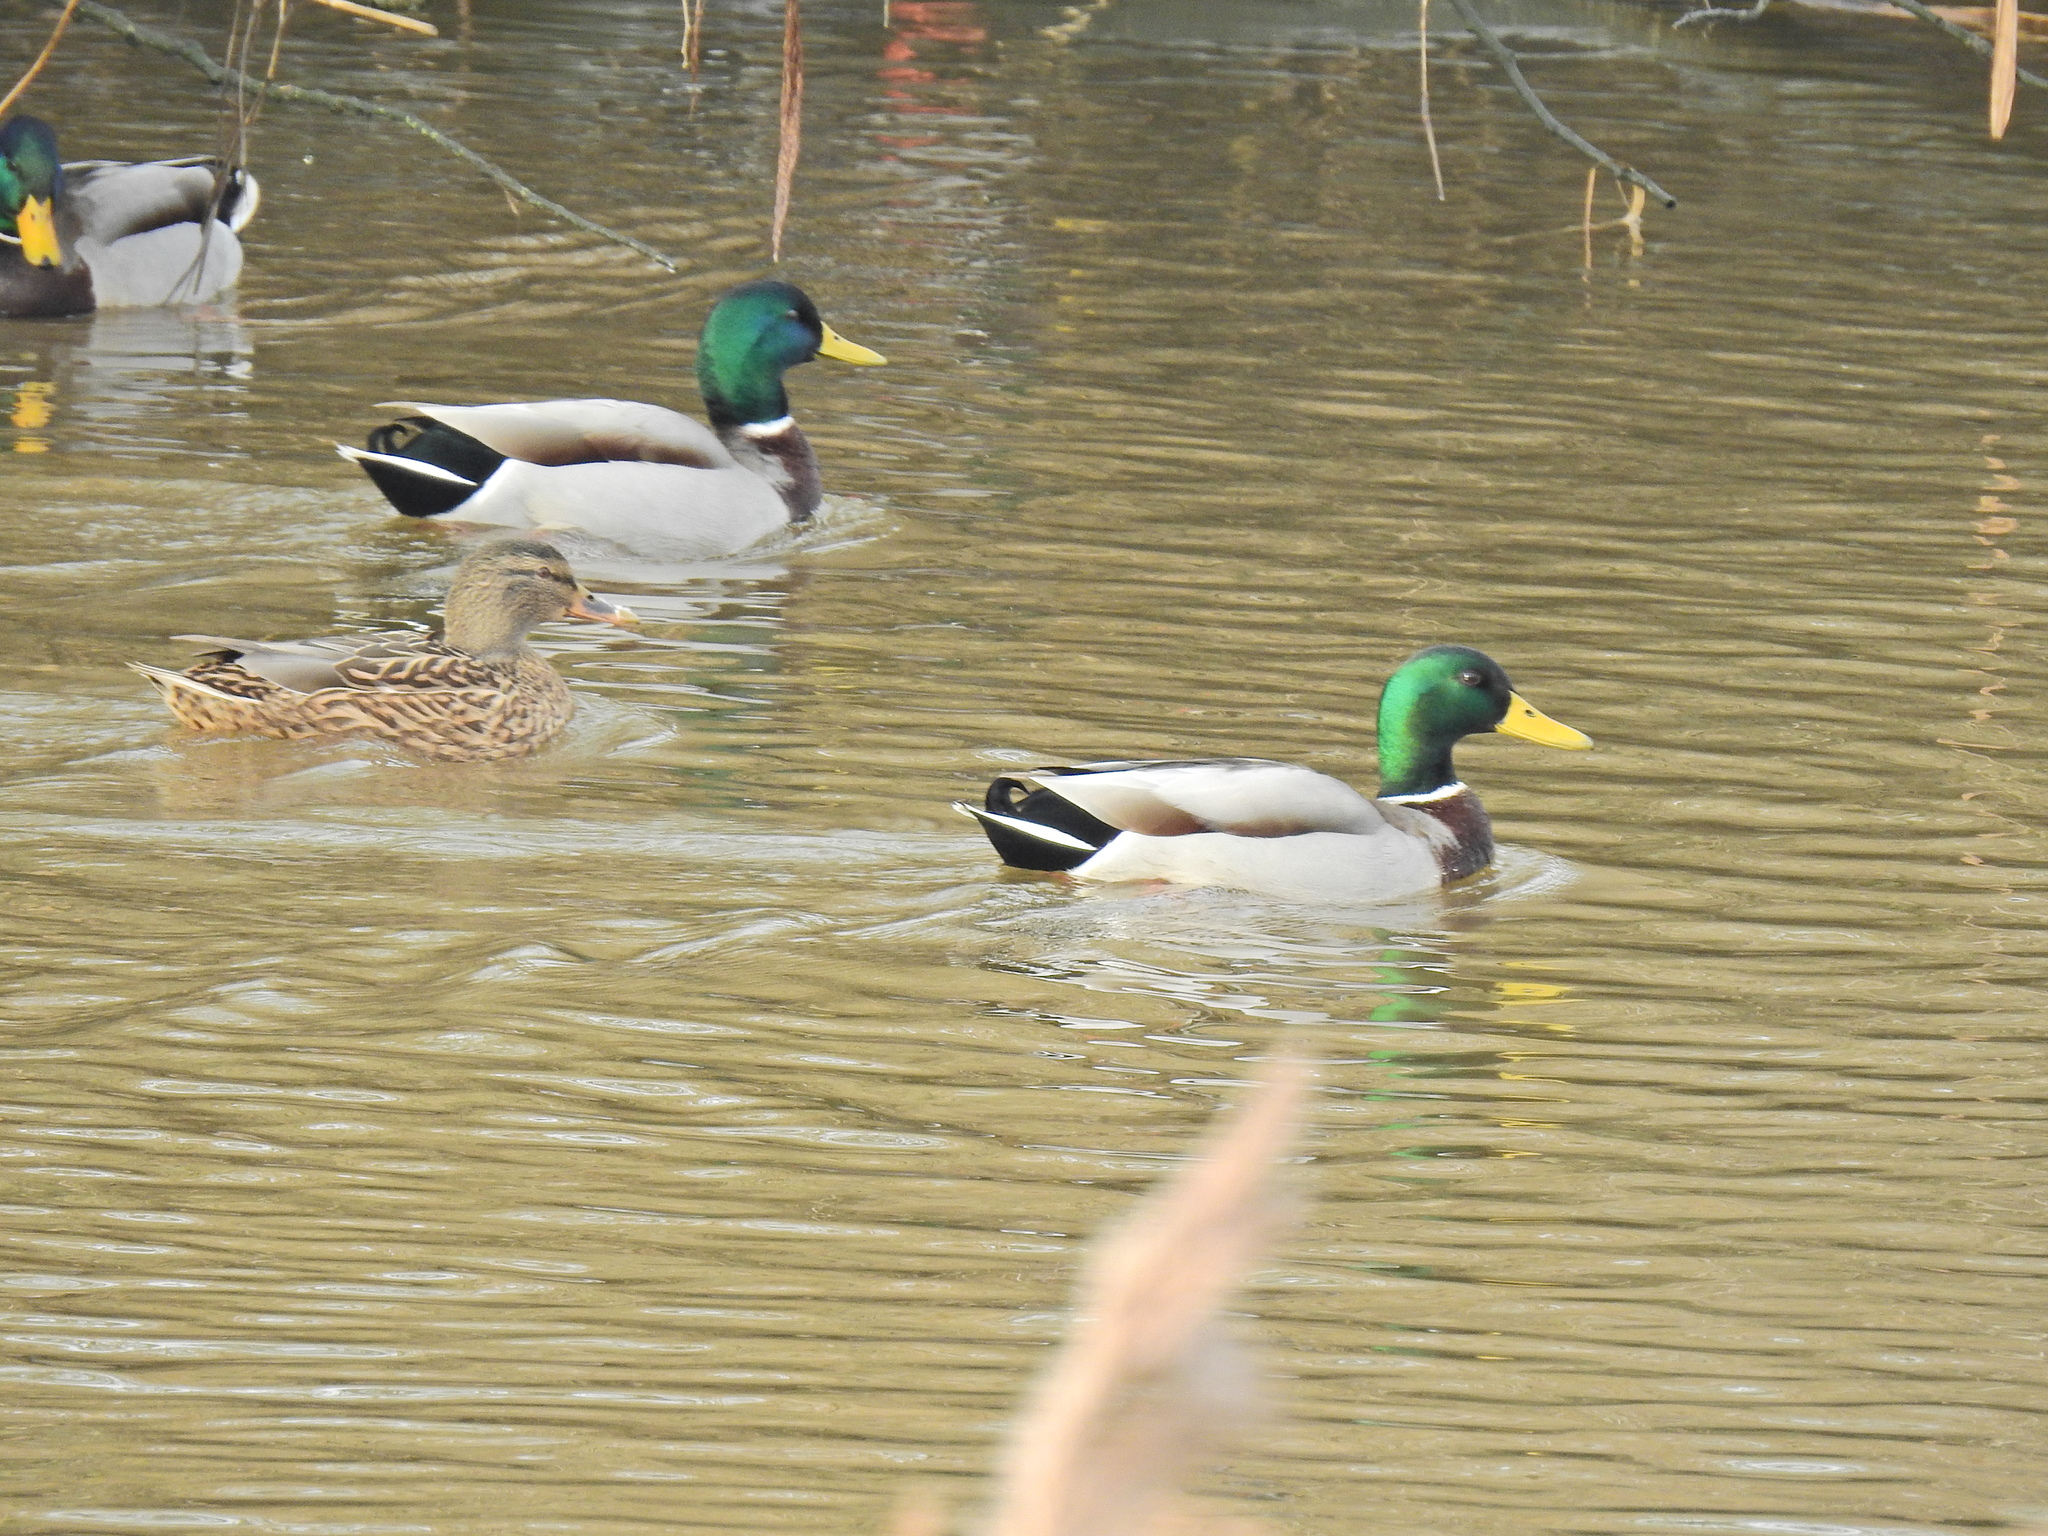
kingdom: Animalia
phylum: Chordata
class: Aves
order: Anseriformes
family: Anatidae
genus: Anas
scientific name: Anas platyrhynchos
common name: Mallard
